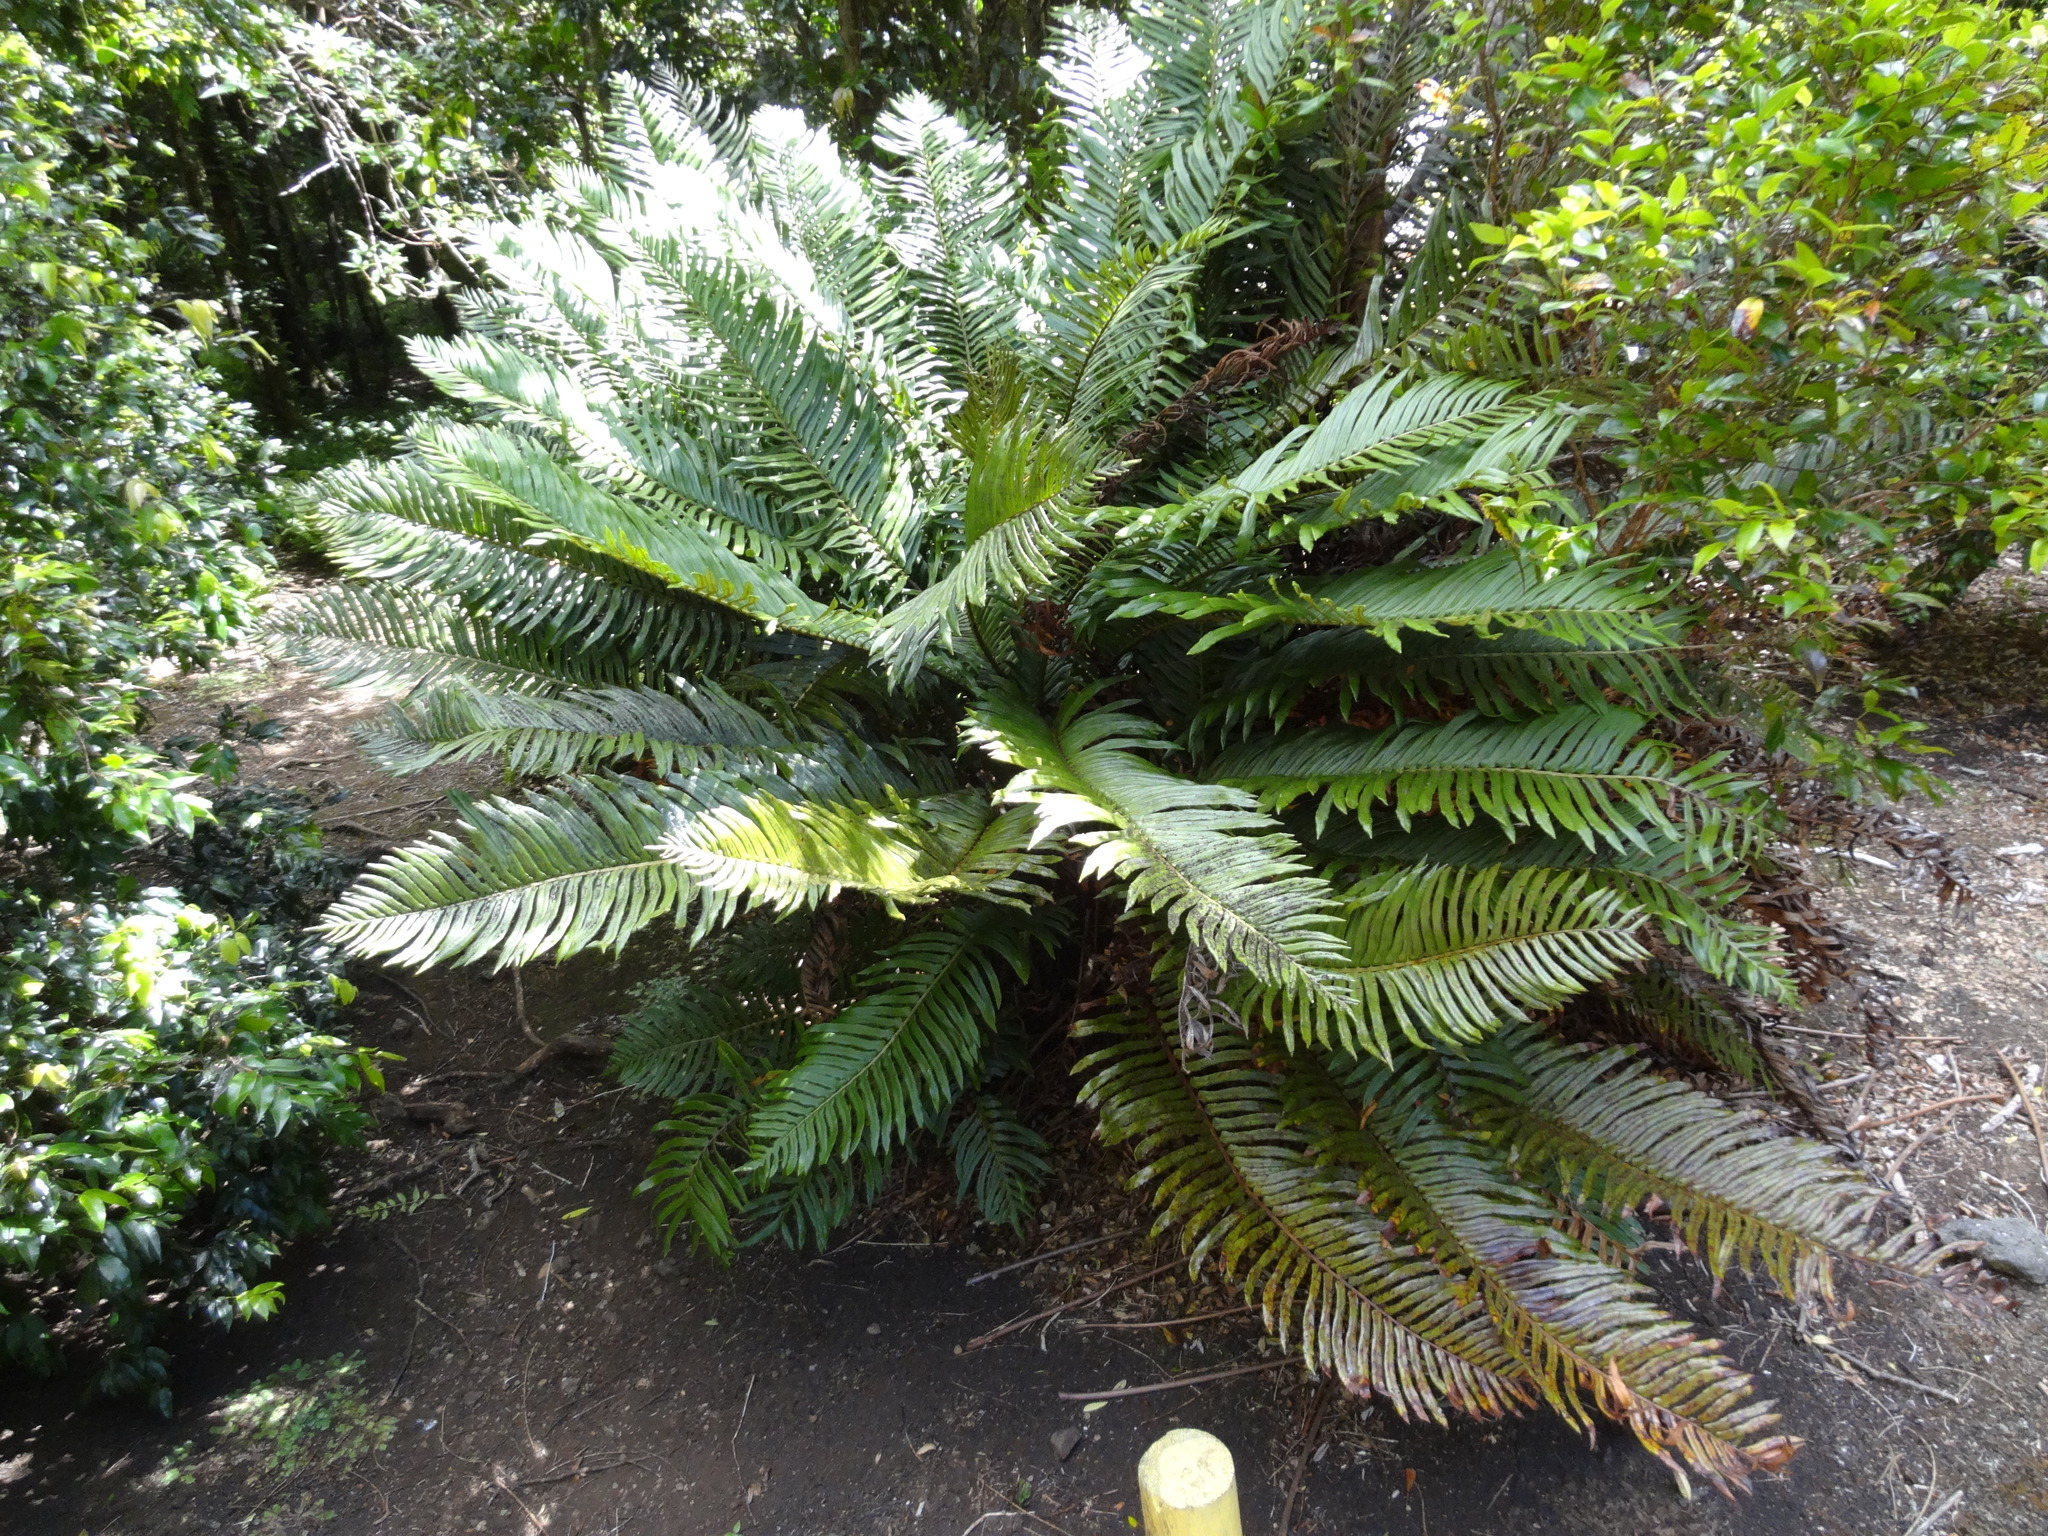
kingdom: Plantae
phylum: Tracheophyta
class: Polypodiopsida
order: Polypodiales
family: Blechnaceae
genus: Lomariocycas
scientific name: Lomariocycas cycadifolia
